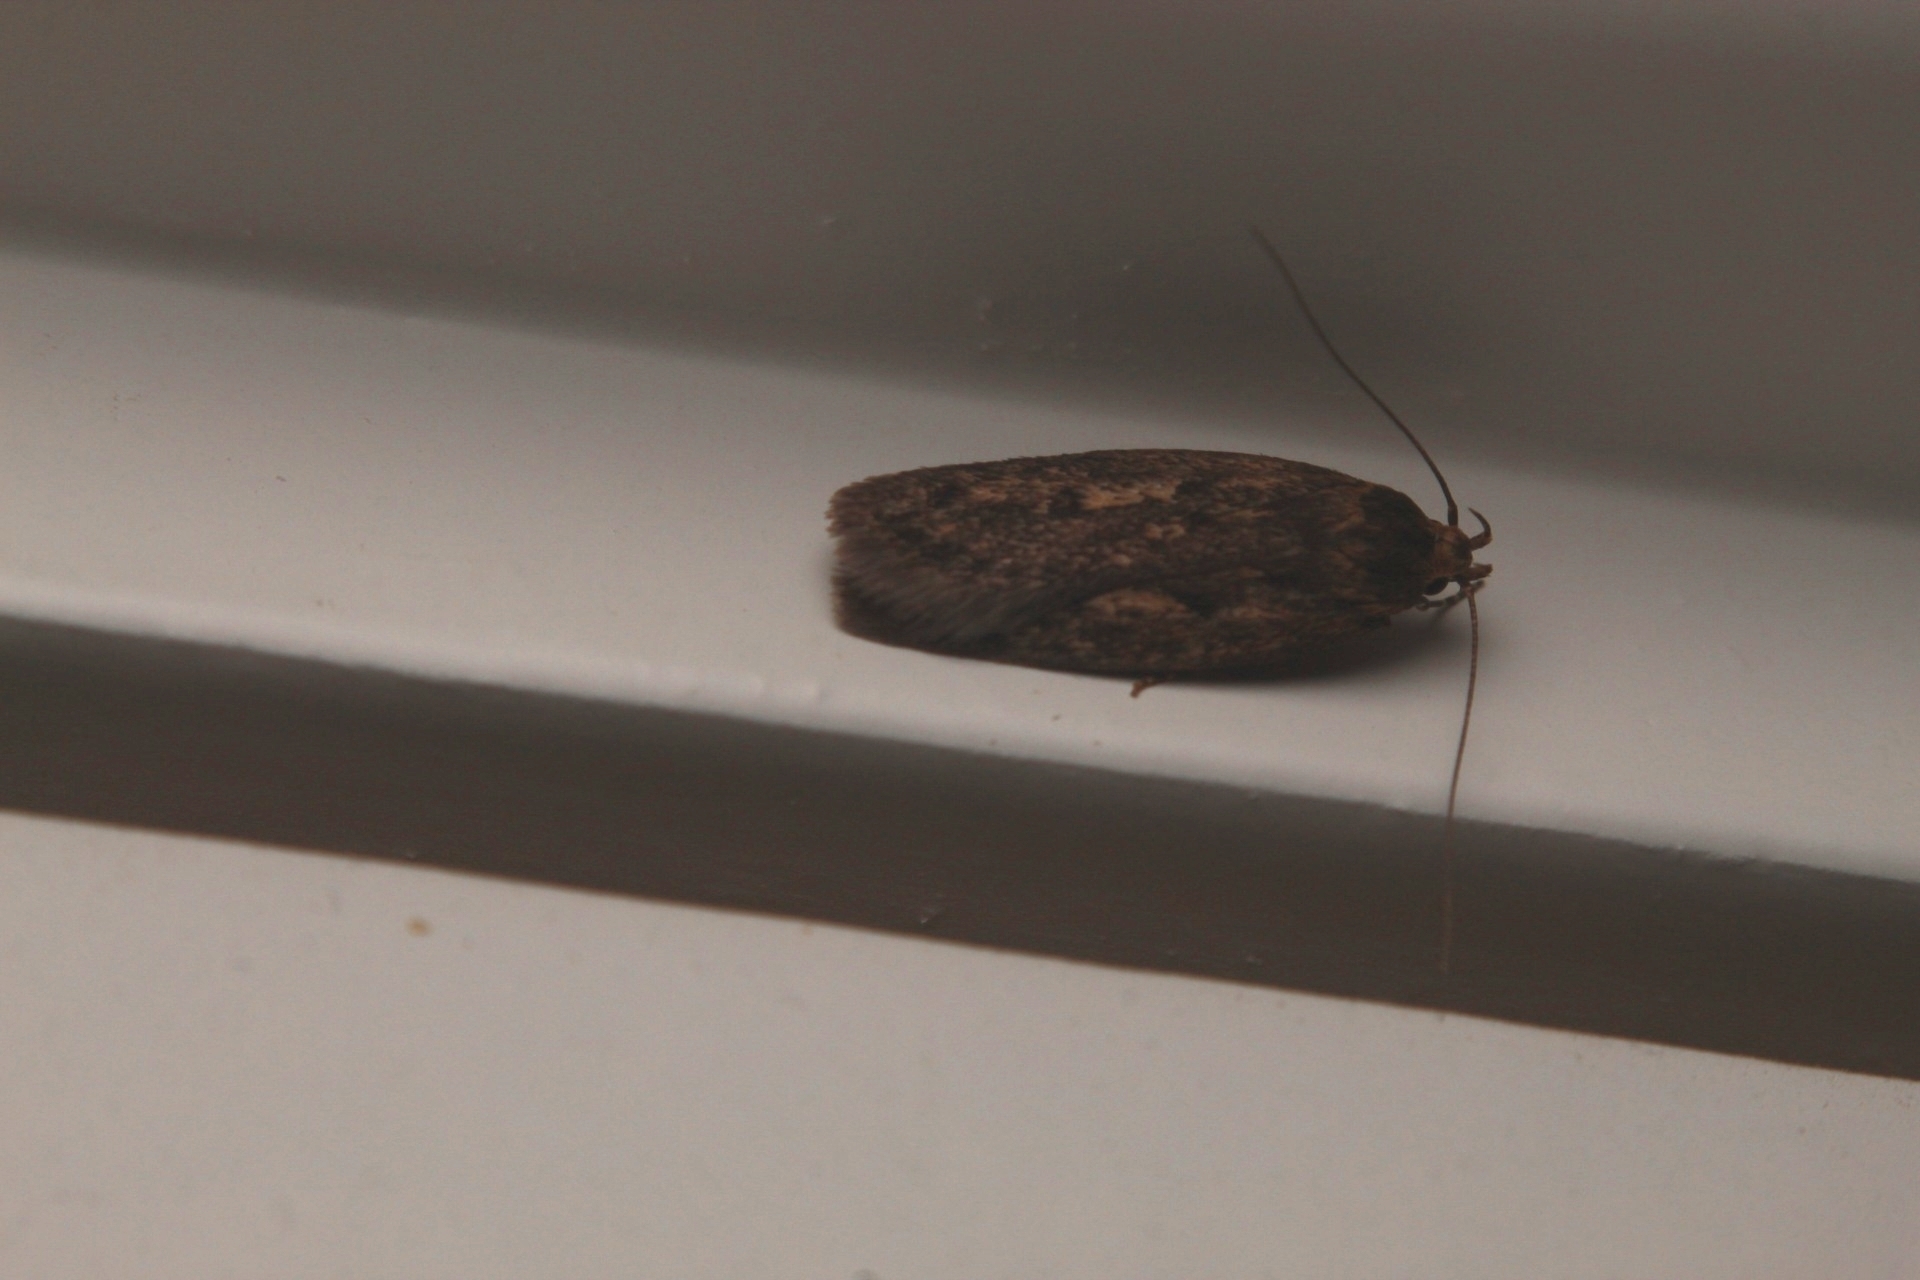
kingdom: Animalia
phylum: Arthropoda
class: Insecta
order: Lepidoptera
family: Oecophoridae
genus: Hofmannophila
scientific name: Hofmannophila pseudospretella
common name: Brown house moth
